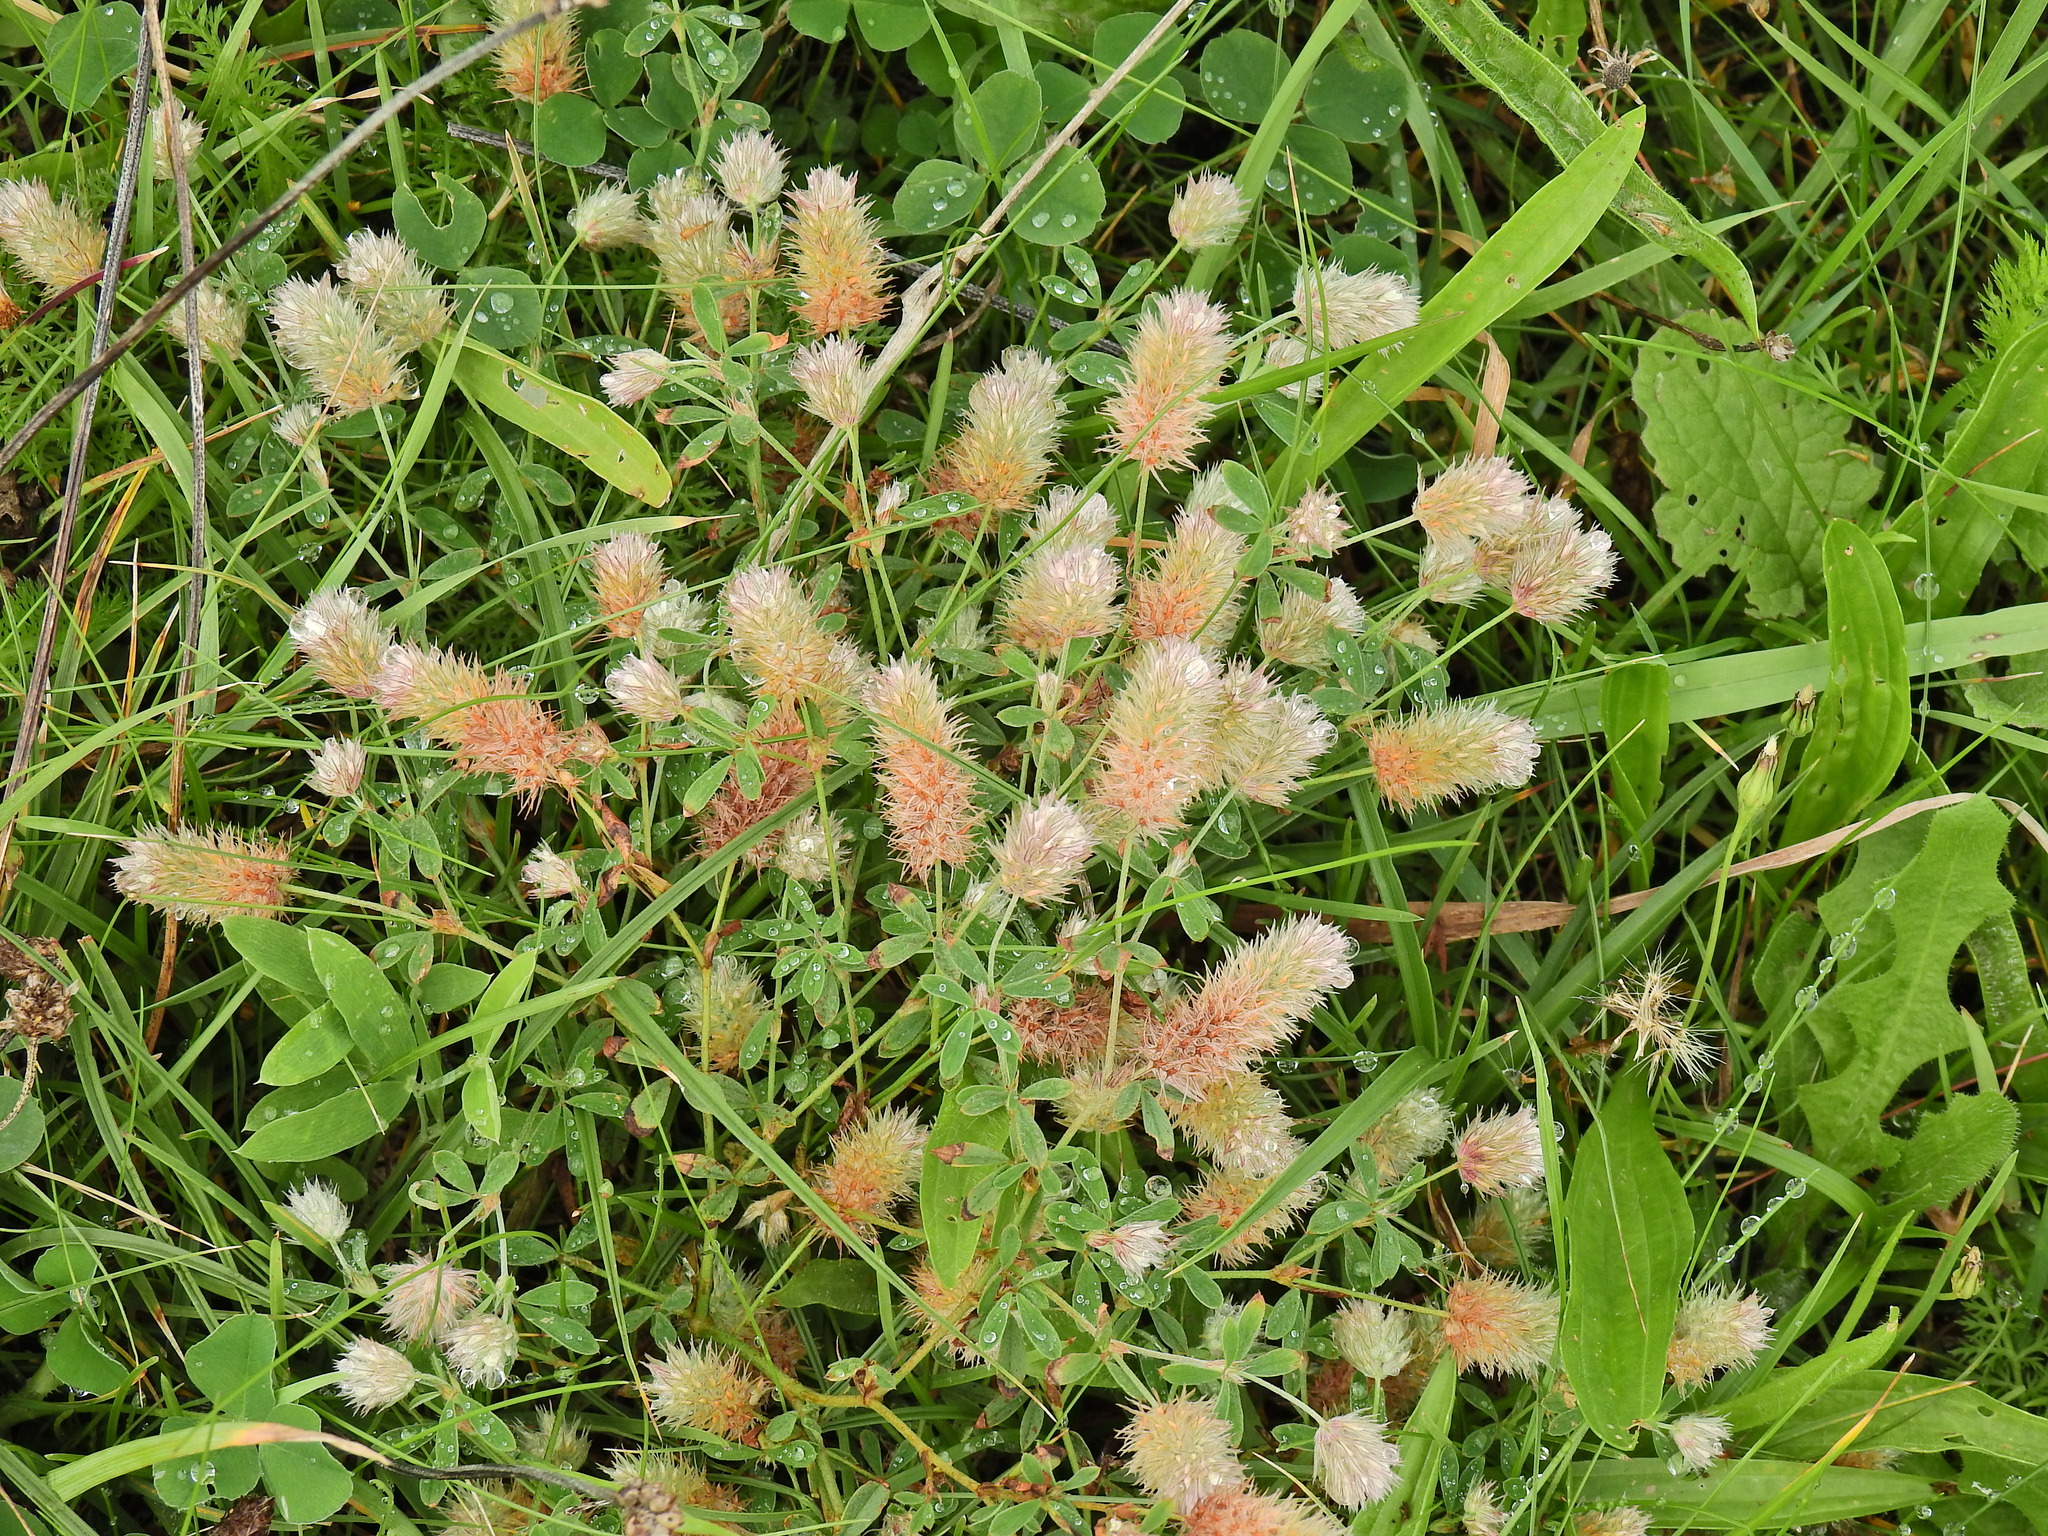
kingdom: Plantae
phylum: Tracheophyta
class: Magnoliopsida
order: Fabales
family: Fabaceae
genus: Trifolium
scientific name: Trifolium arvense
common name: Hare's-foot clover
